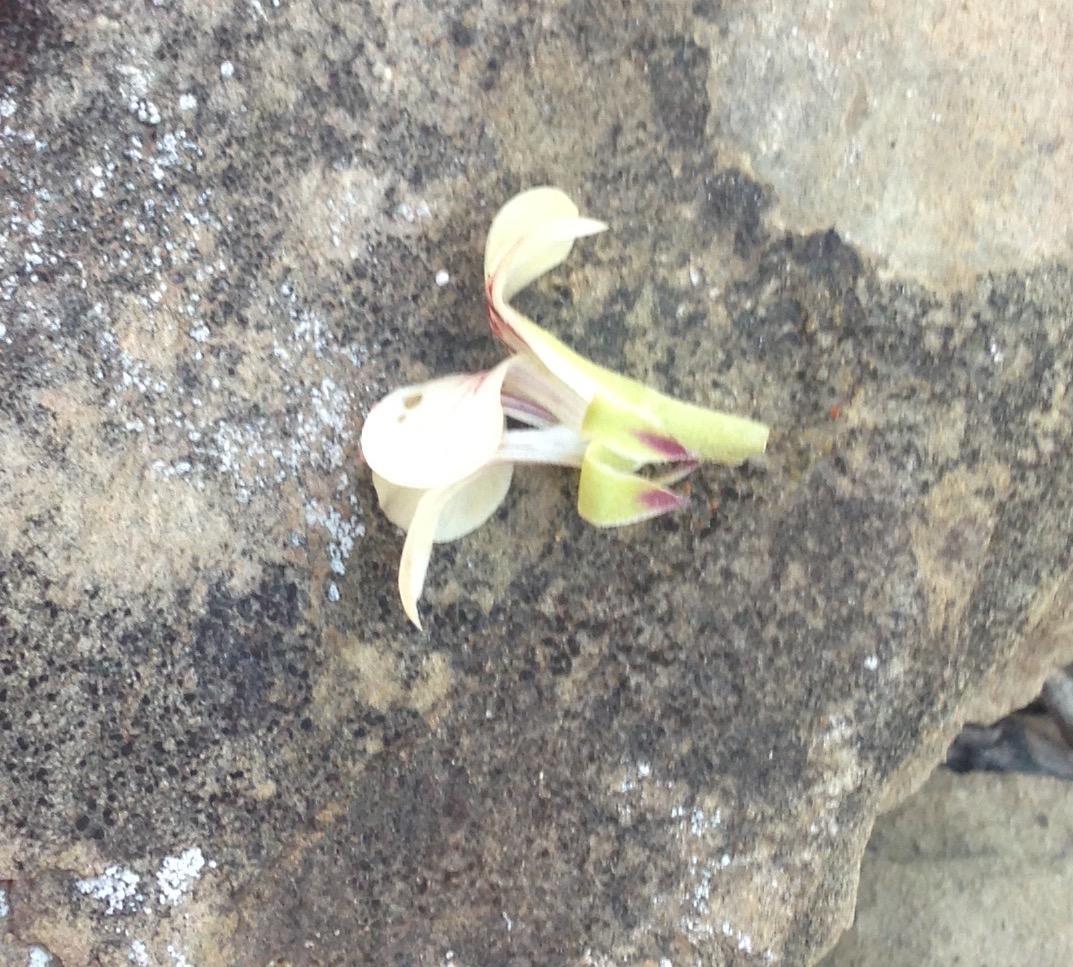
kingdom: Plantae
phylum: Tracheophyta
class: Magnoliopsida
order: Geraniales
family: Geraniaceae
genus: Pelargonium
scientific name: Pelargonium luteolum
